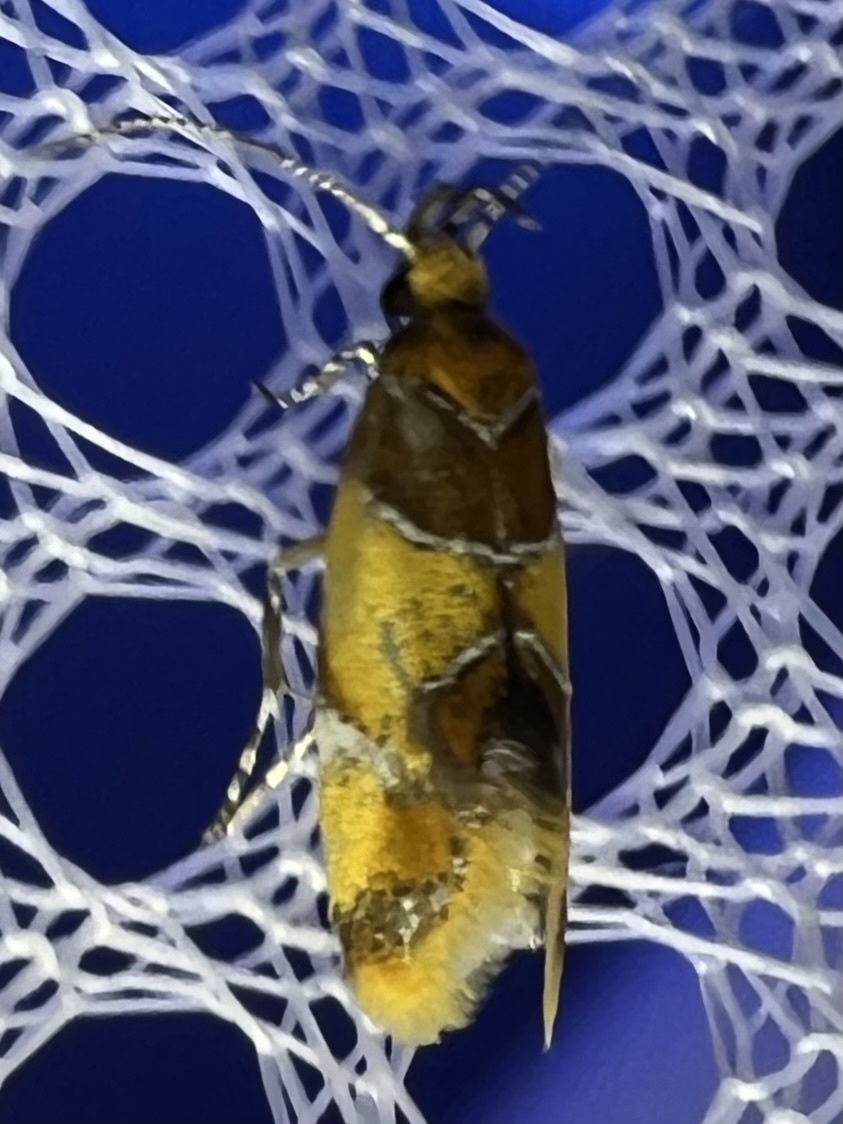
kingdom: Animalia
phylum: Arthropoda
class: Insecta
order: Lepidoptera
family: Oecophoridae
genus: Callima
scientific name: Callima argenticinctella
